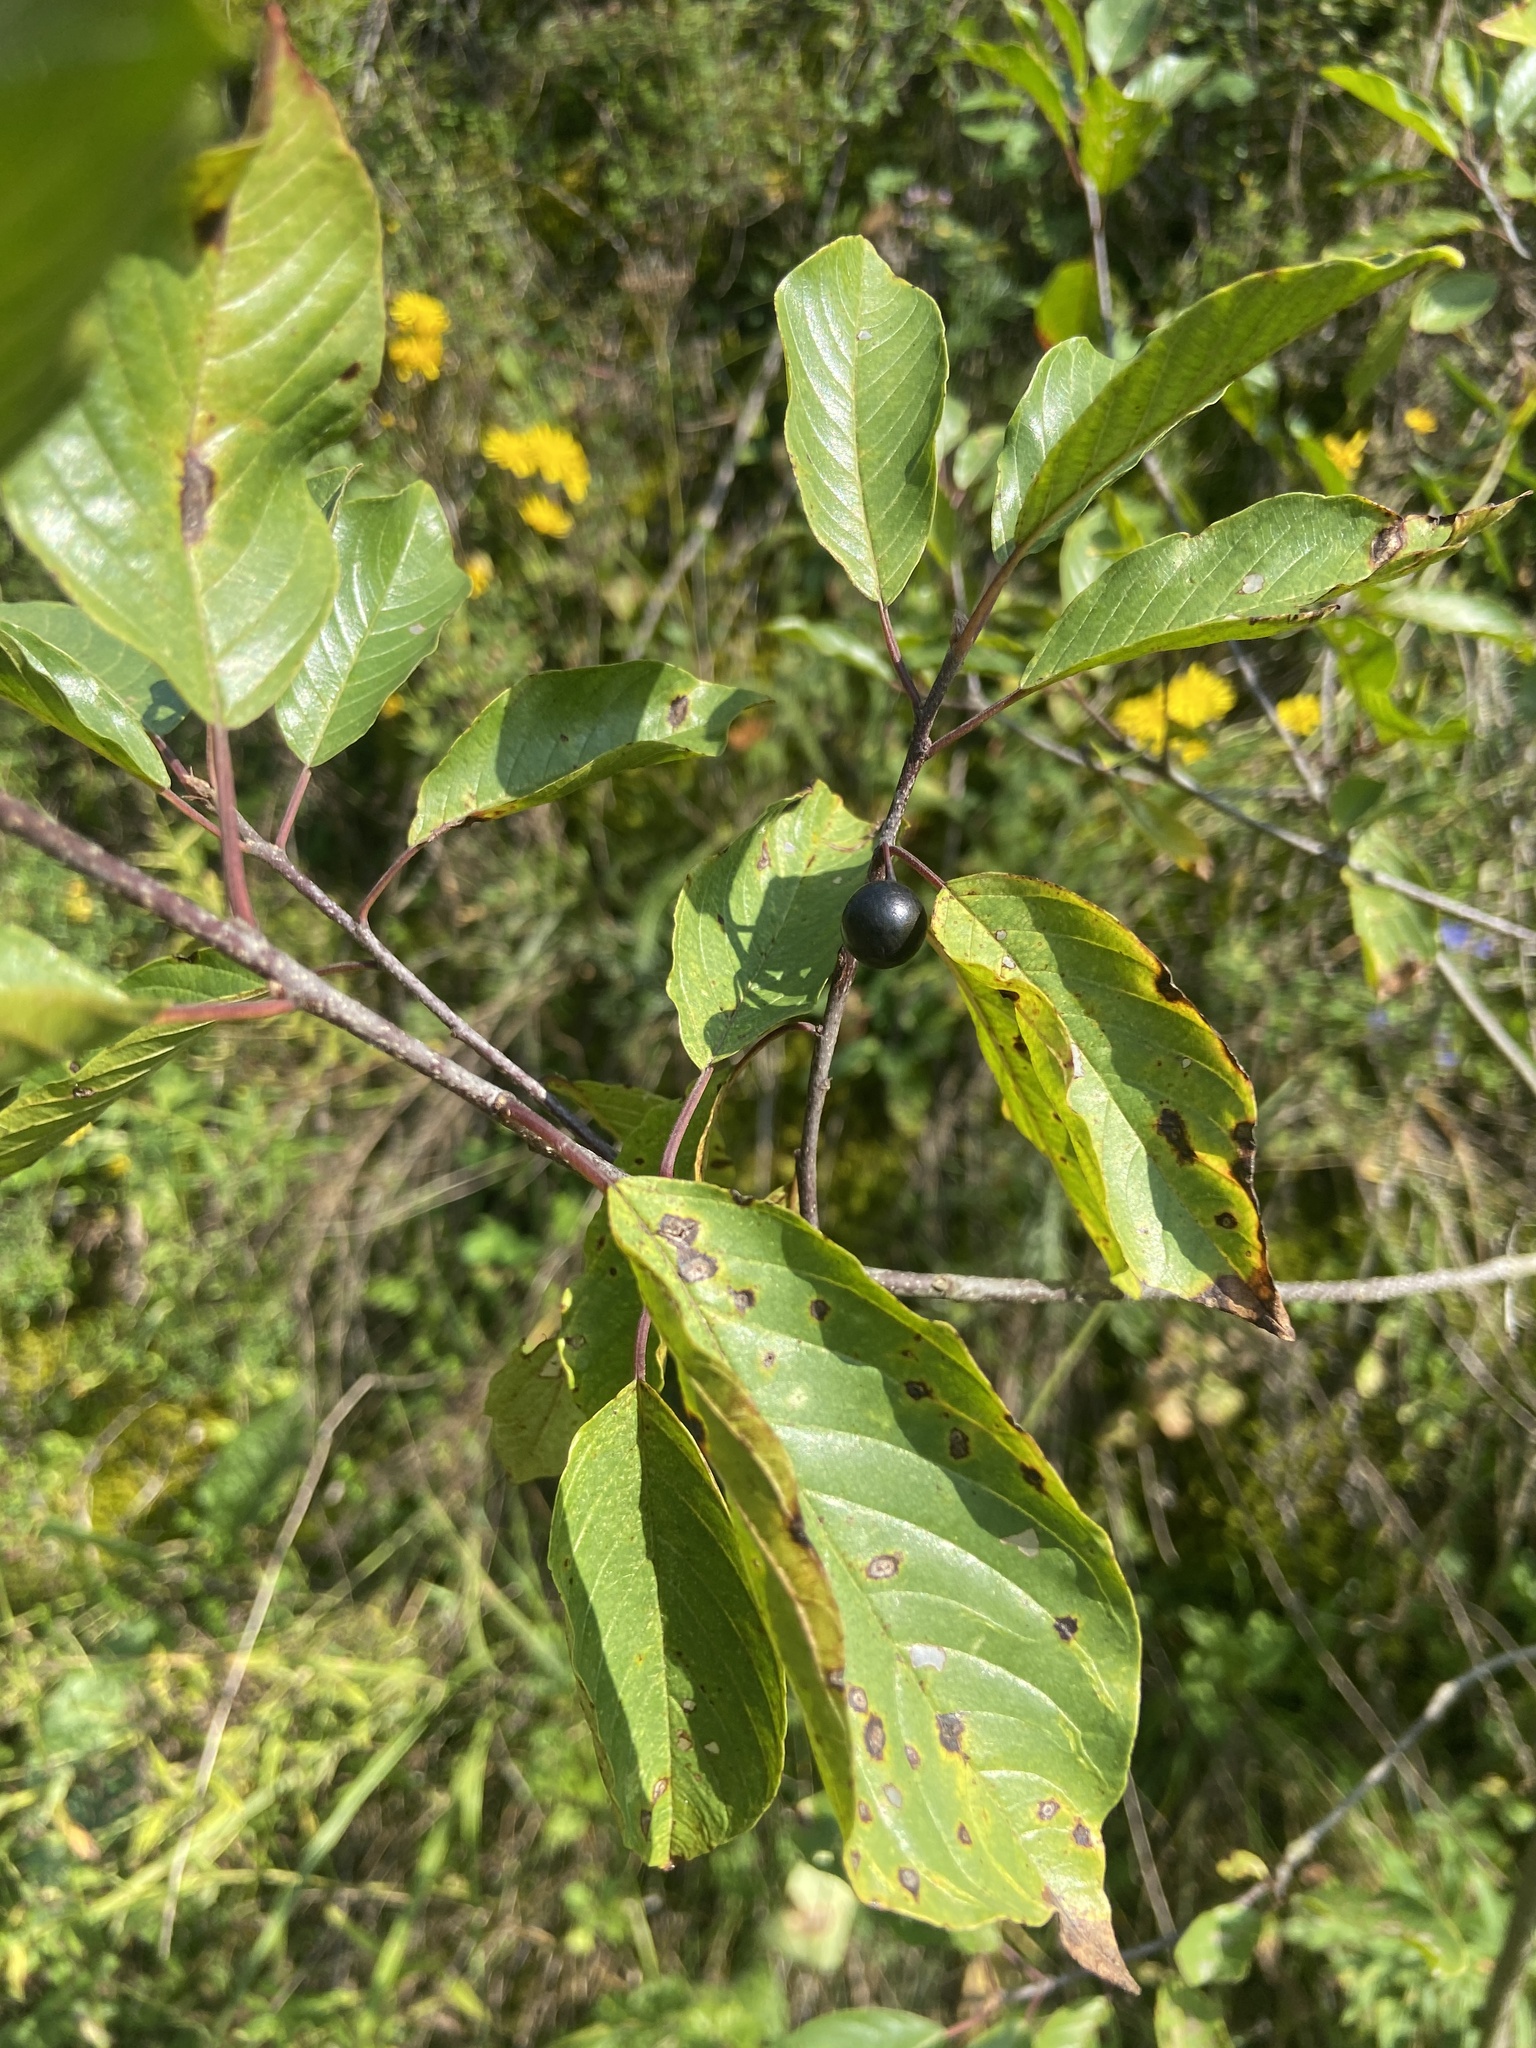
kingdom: Plantae
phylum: Tracheophyta
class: Magnoliopsida
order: Rosales
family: Rhamnaceae
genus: Frangula
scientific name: Frangula alnus
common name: Alder buckthorn
